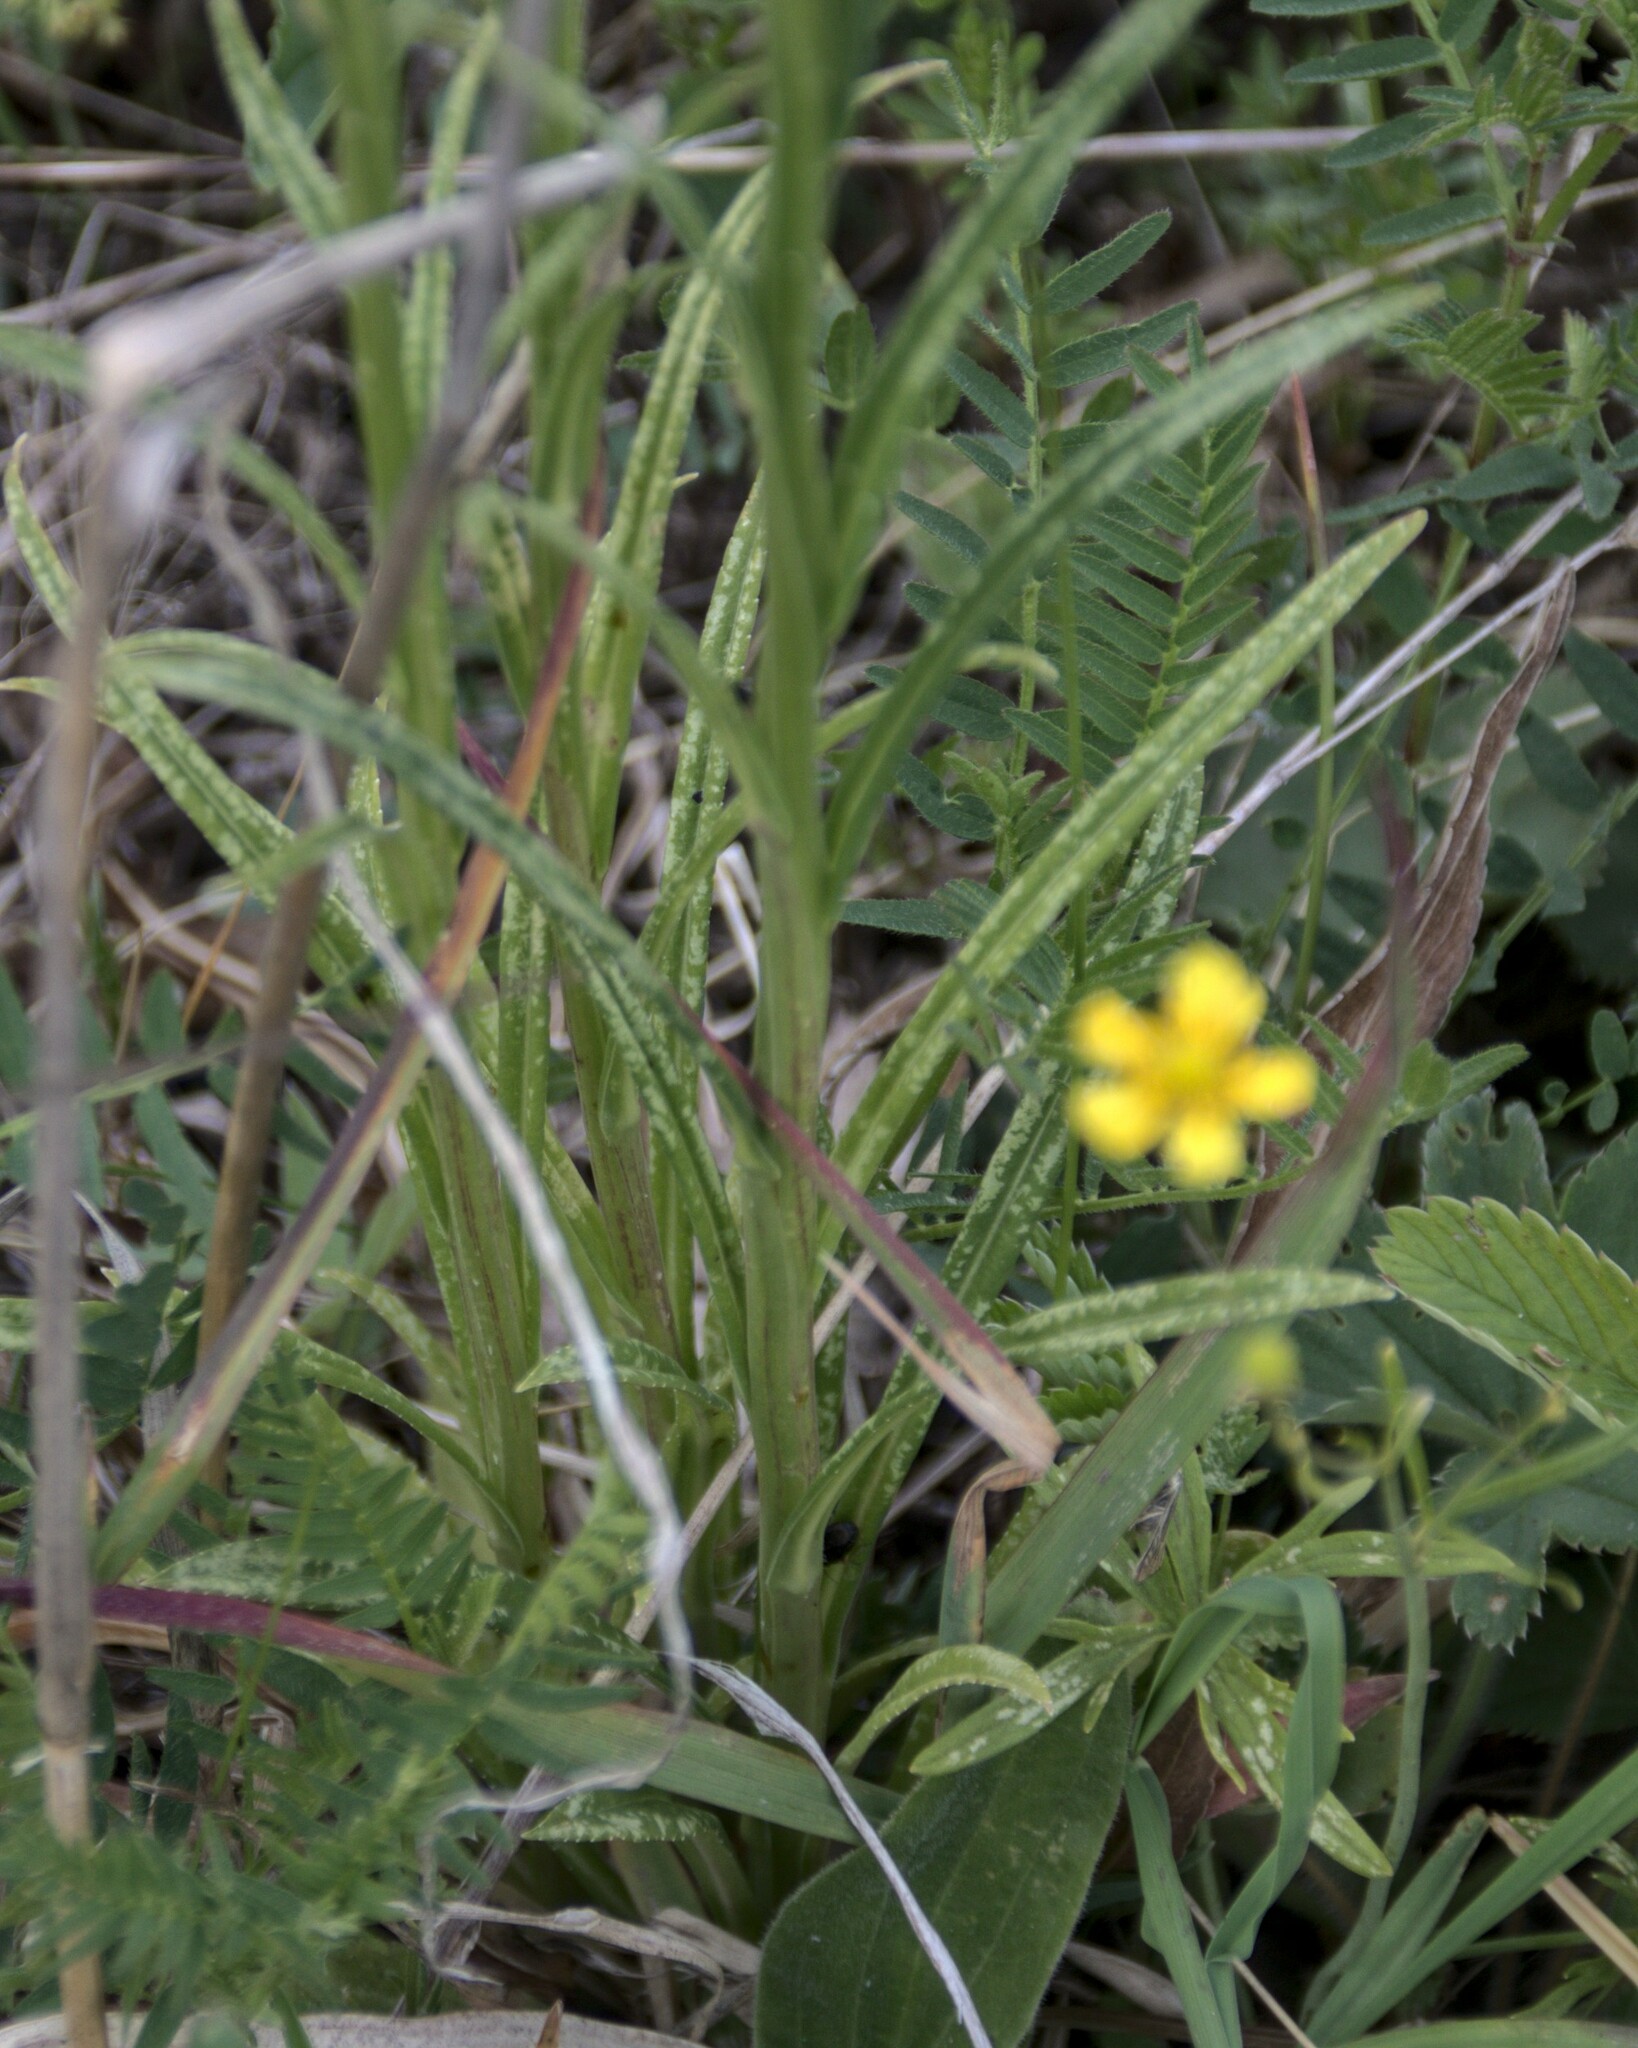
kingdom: Plantae
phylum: Tracheophyta
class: Magnoliopsida
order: Asterales
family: Campanulaceae
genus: Campanula
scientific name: Campanula persicifolia
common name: Peach-leaved bellflower
